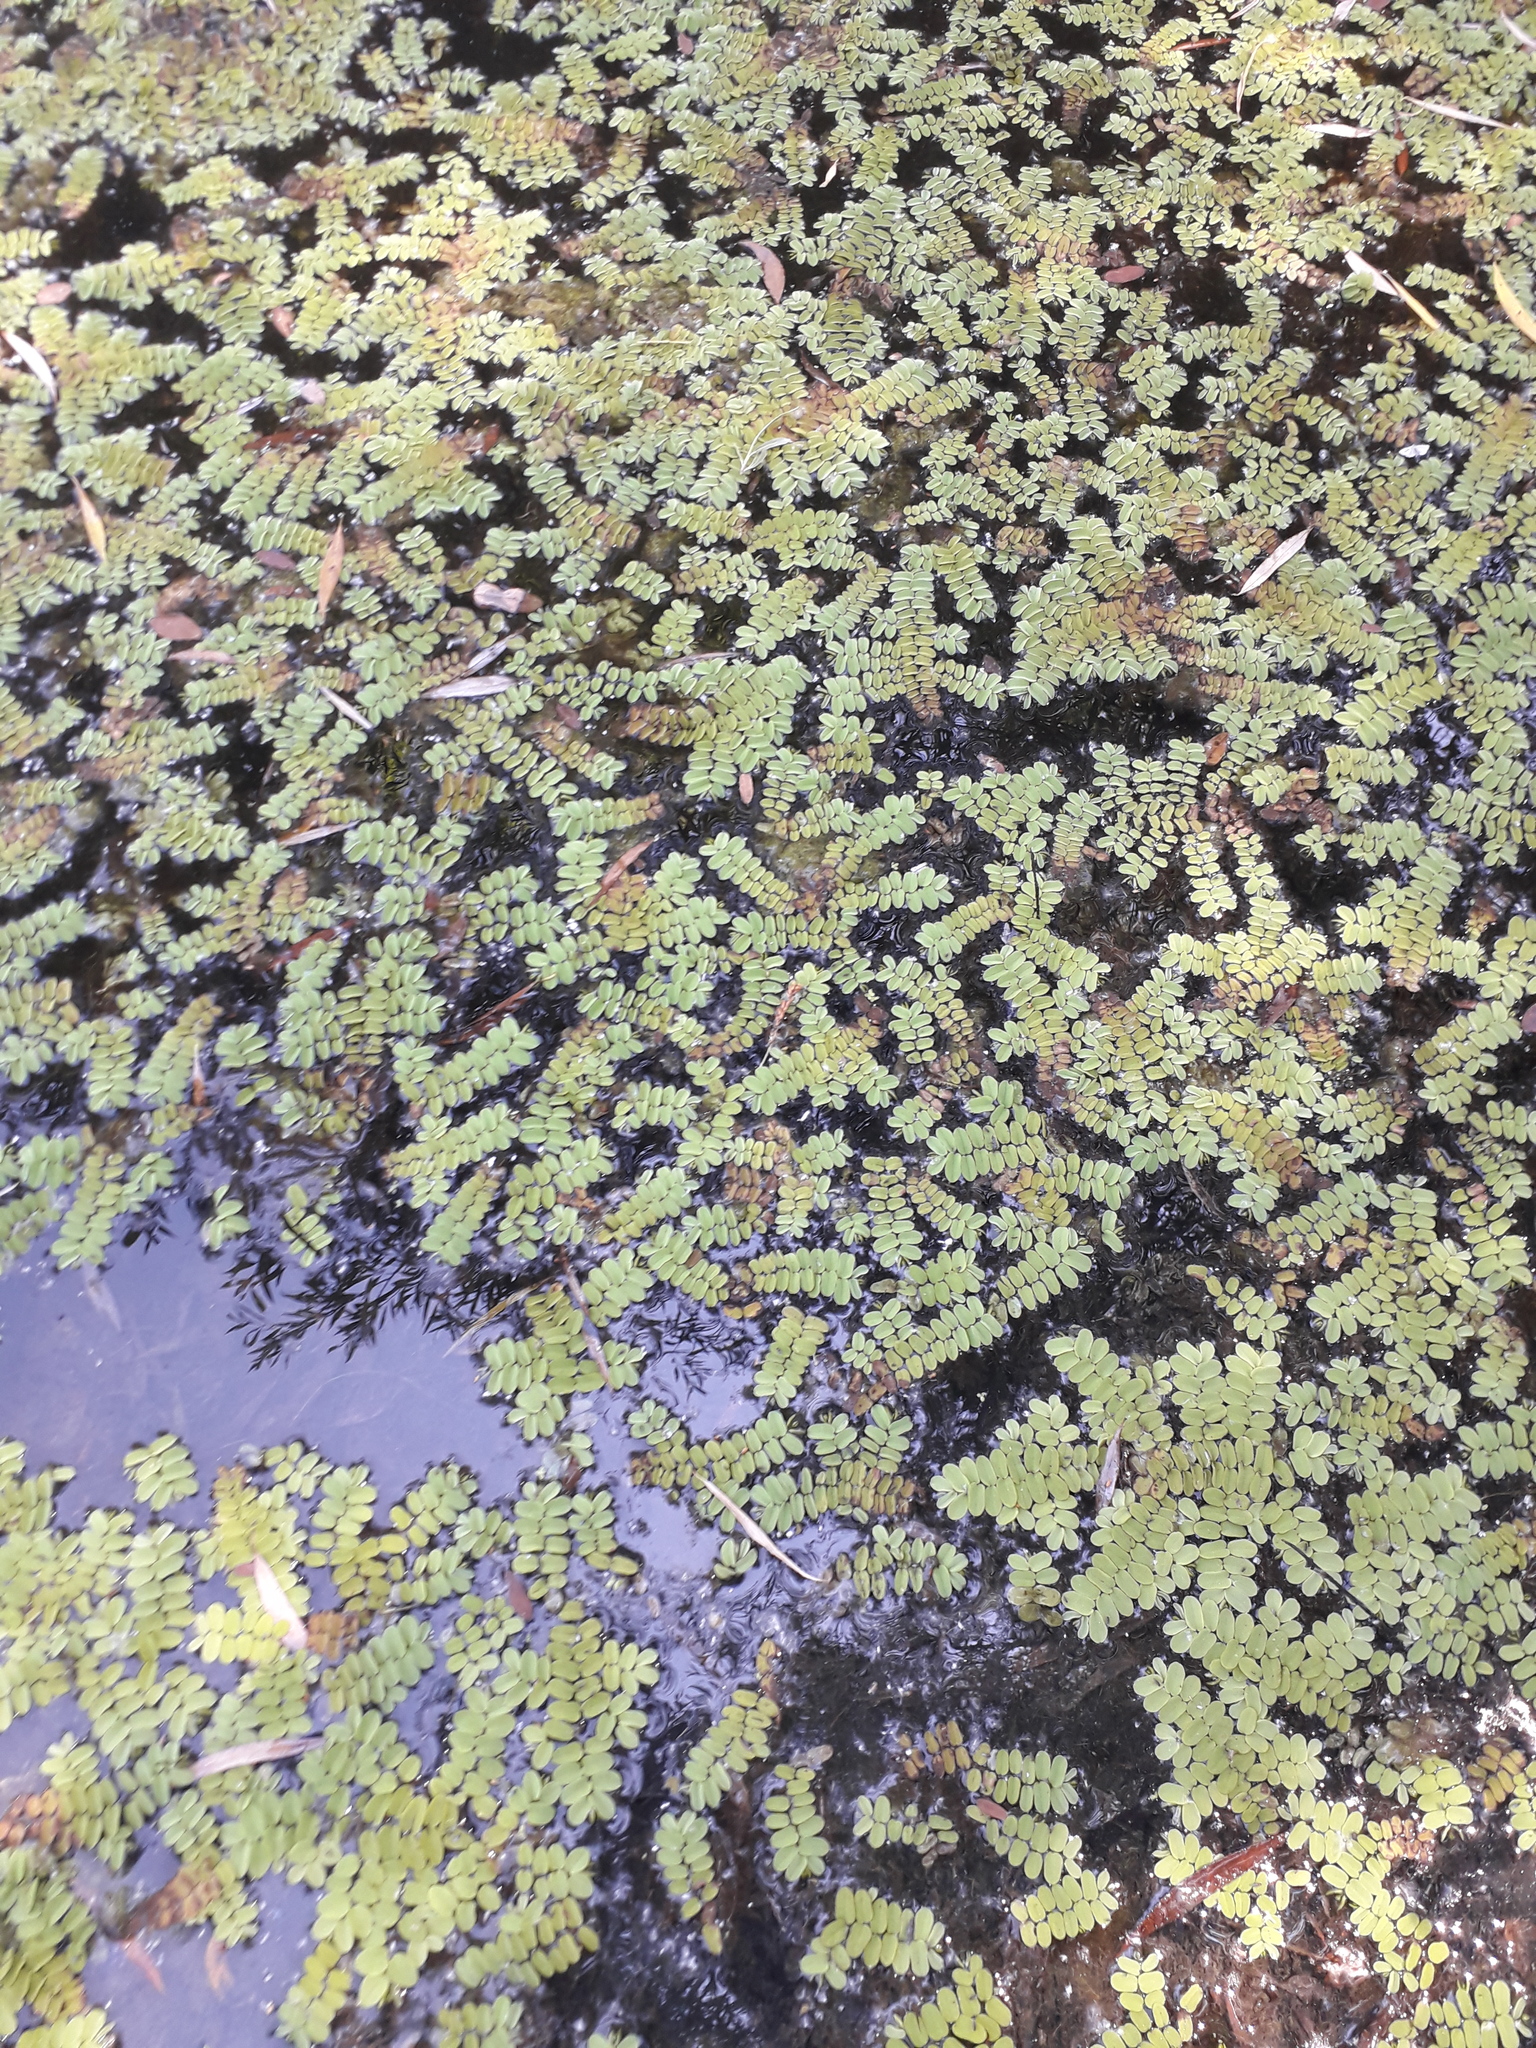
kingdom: Plantae
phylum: Tracheophyta
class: Polypodiopsida
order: Salviniales
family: Salviniaceae
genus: Salvinia
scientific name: Salvinia natans
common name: Floating fern
